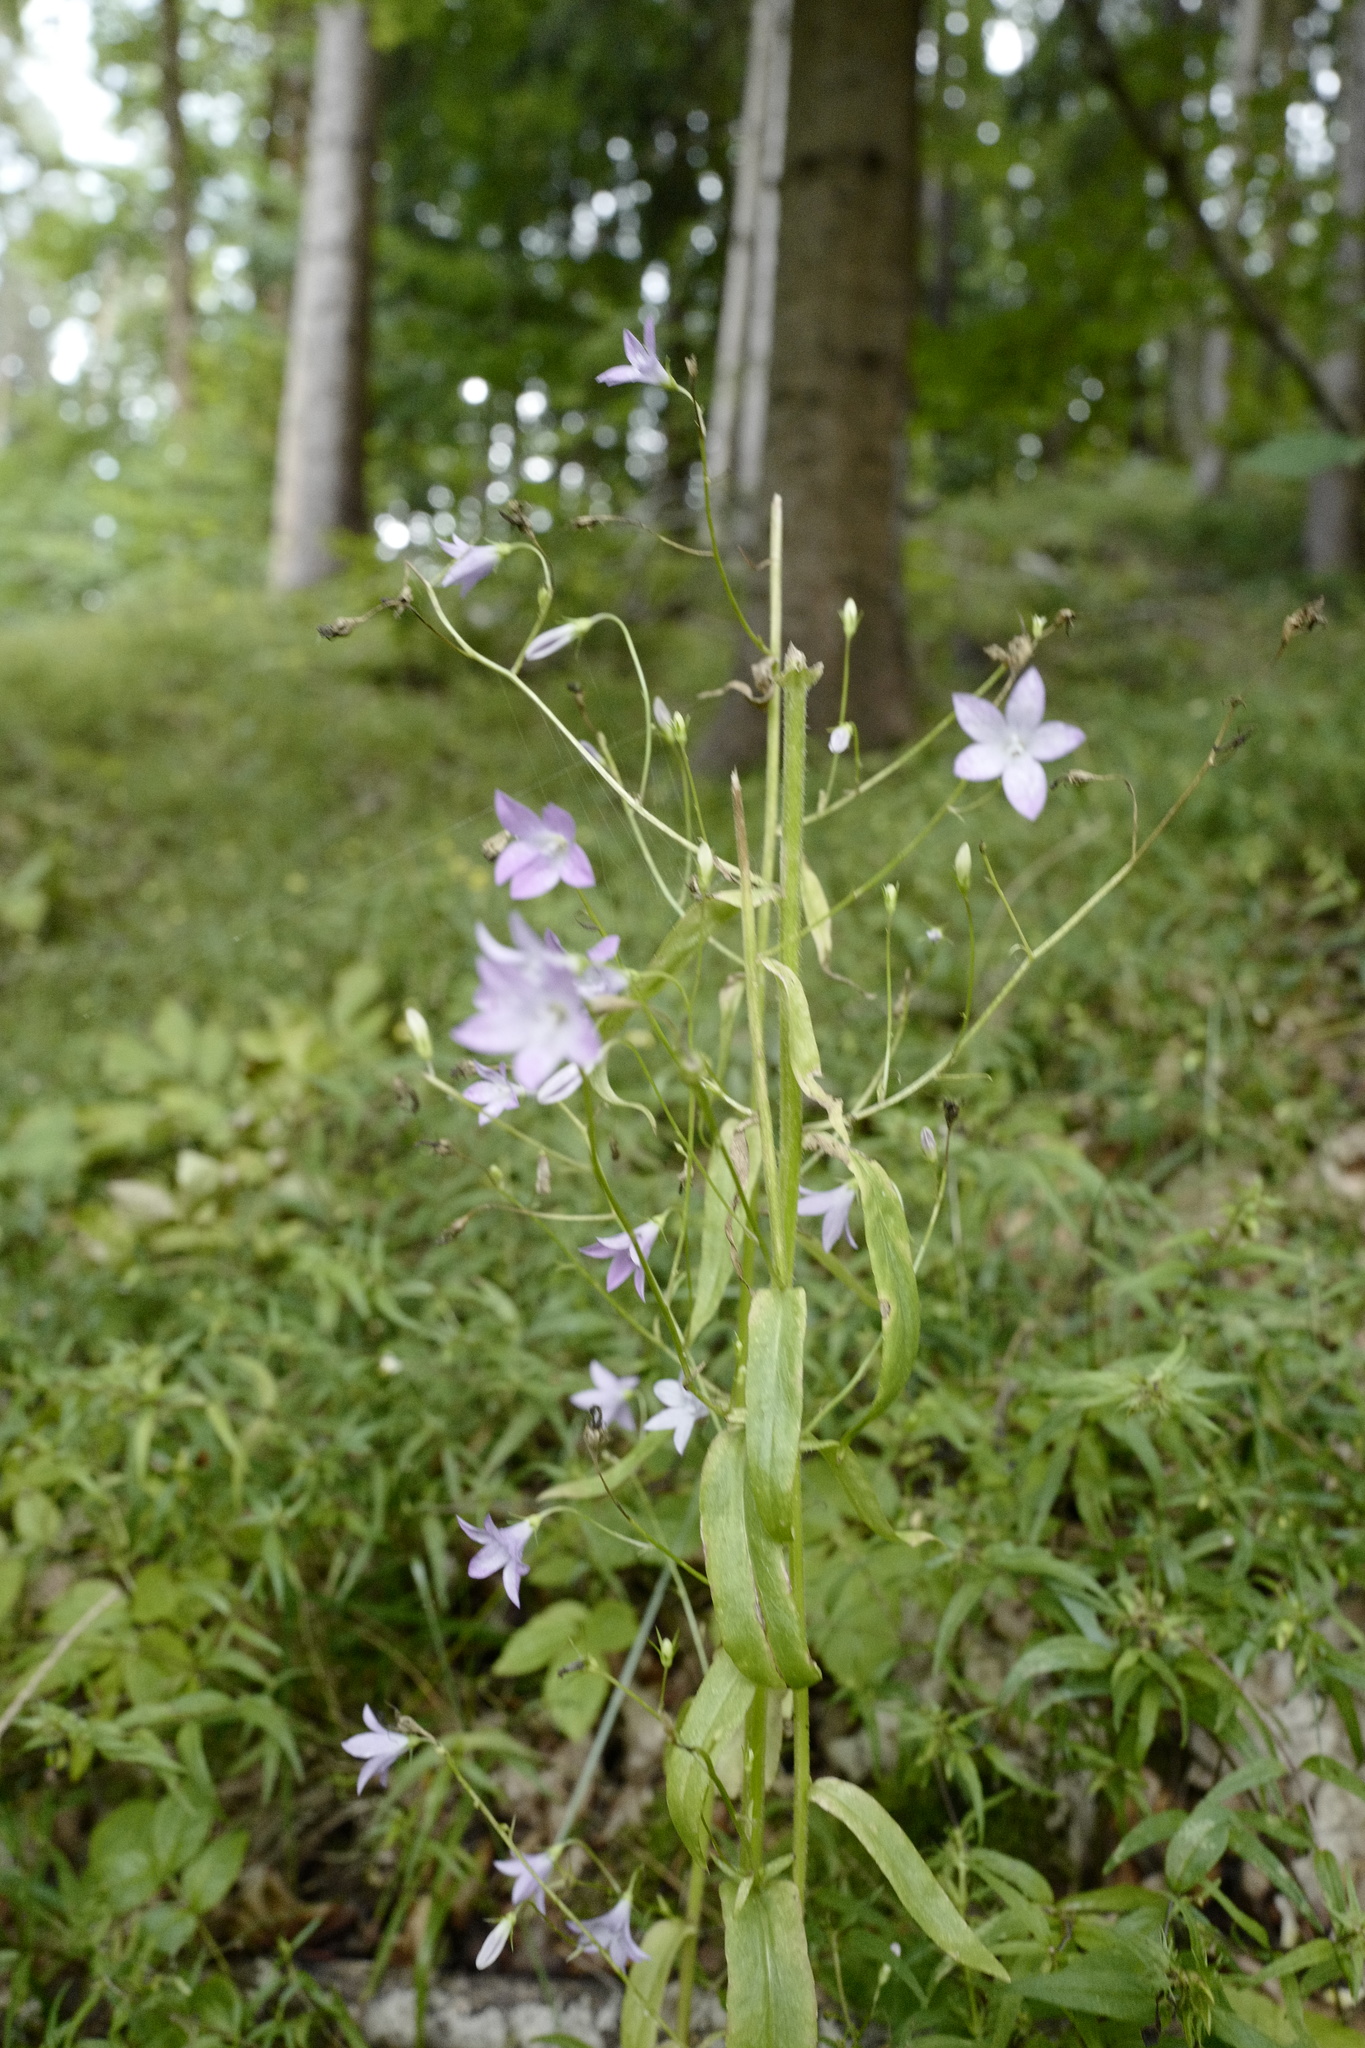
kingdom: Plantae
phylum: Tracheophyta
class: Magnoliopsida
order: Asterales
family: Campanulaceae
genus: Campanula
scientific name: Campanula patula
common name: Spreading bellflower
